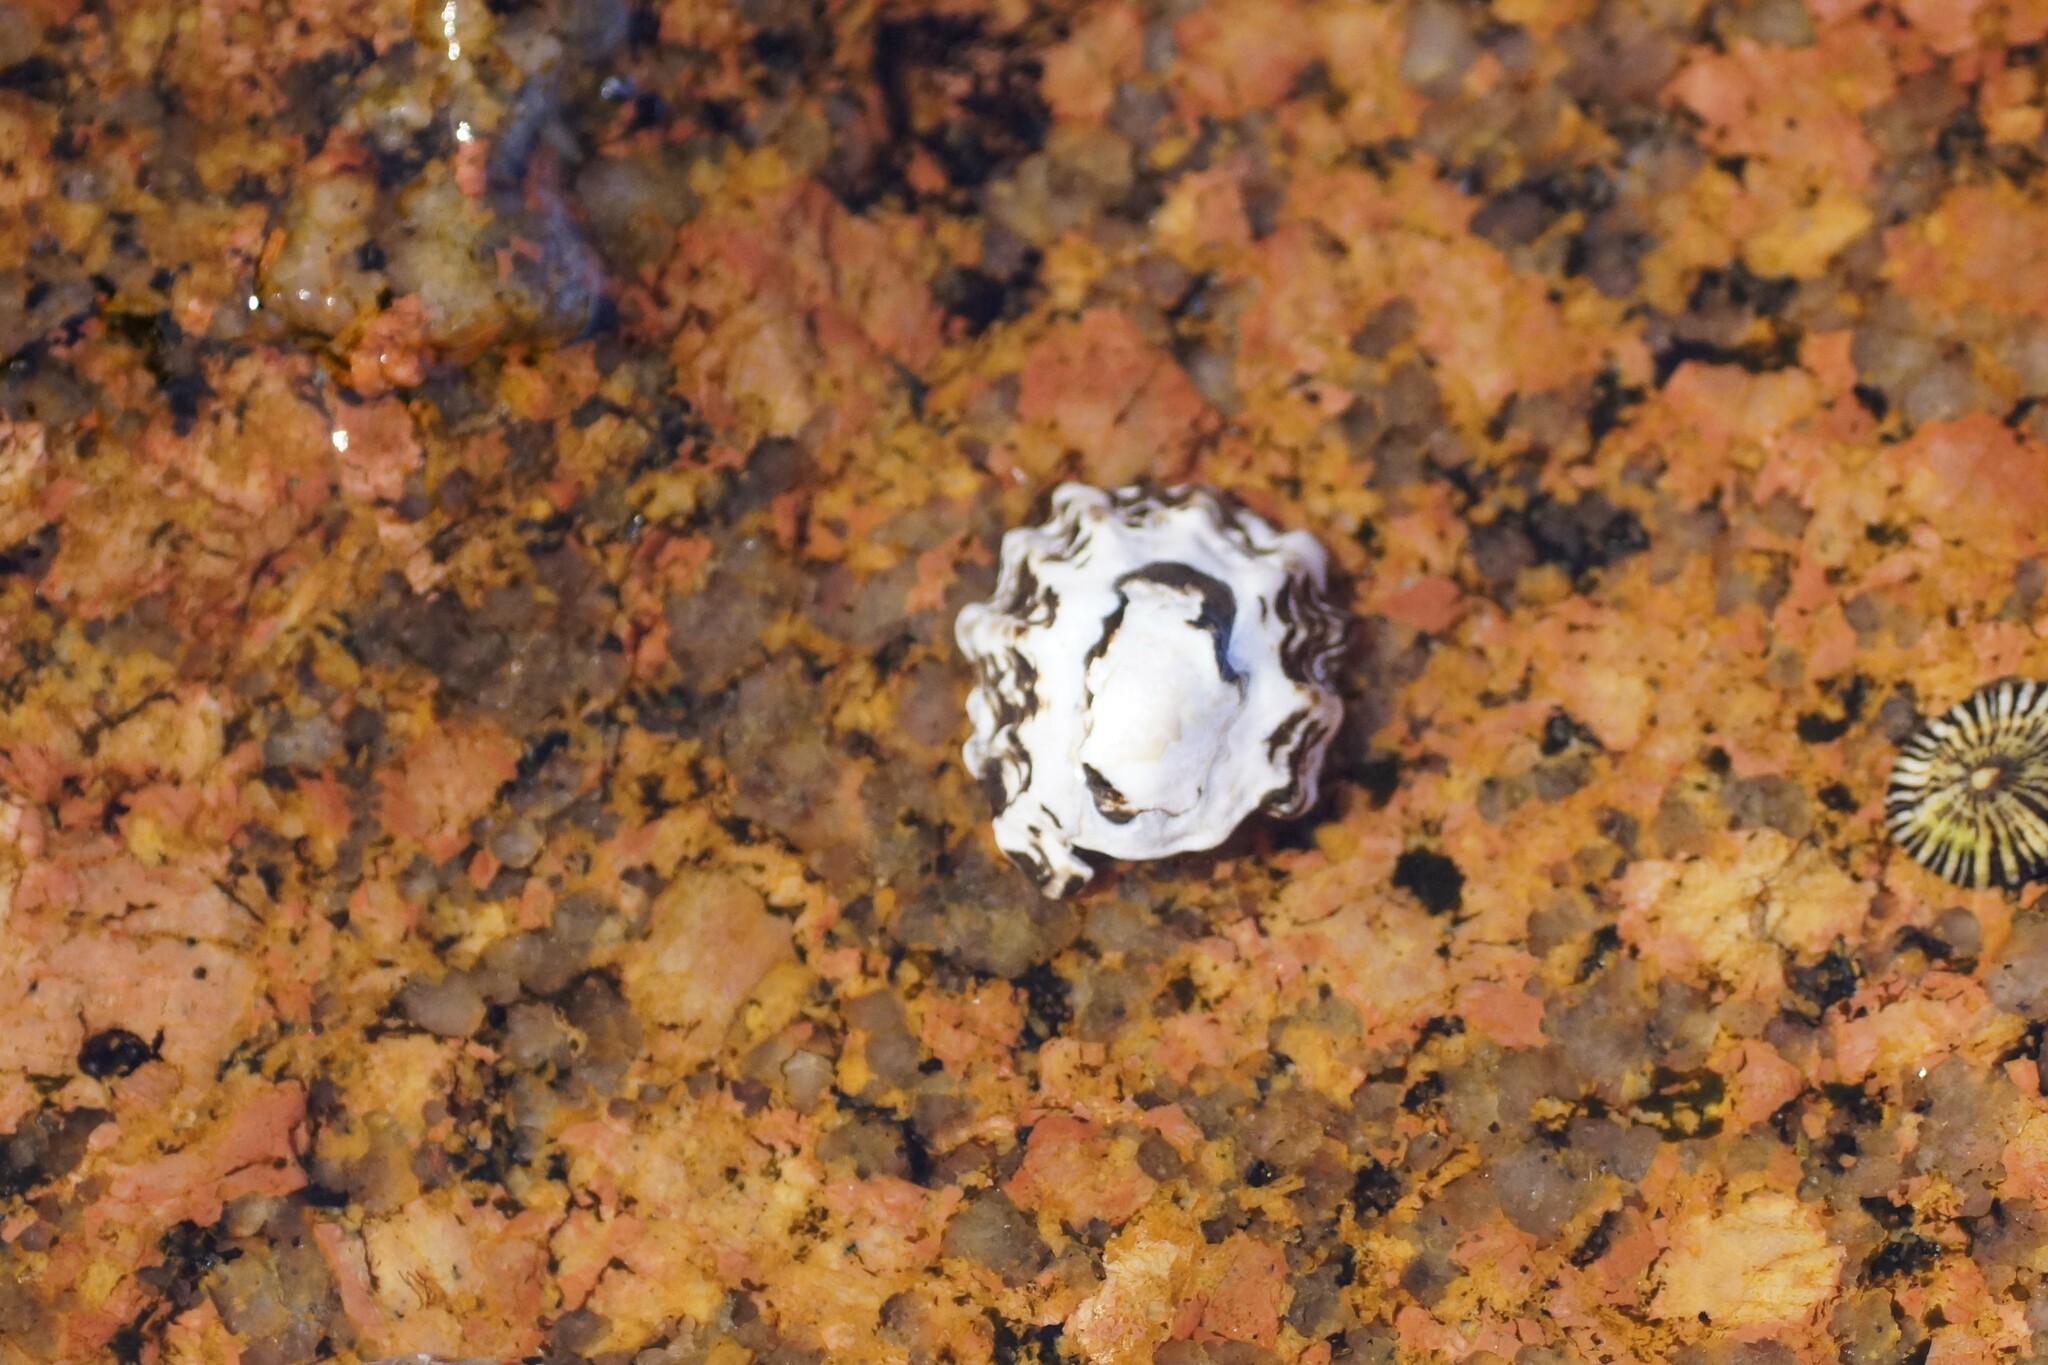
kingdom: Animalia
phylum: Mollusca
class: Gastropoda
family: Lottiidae
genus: Patelloida
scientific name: Patelloida alticostata
